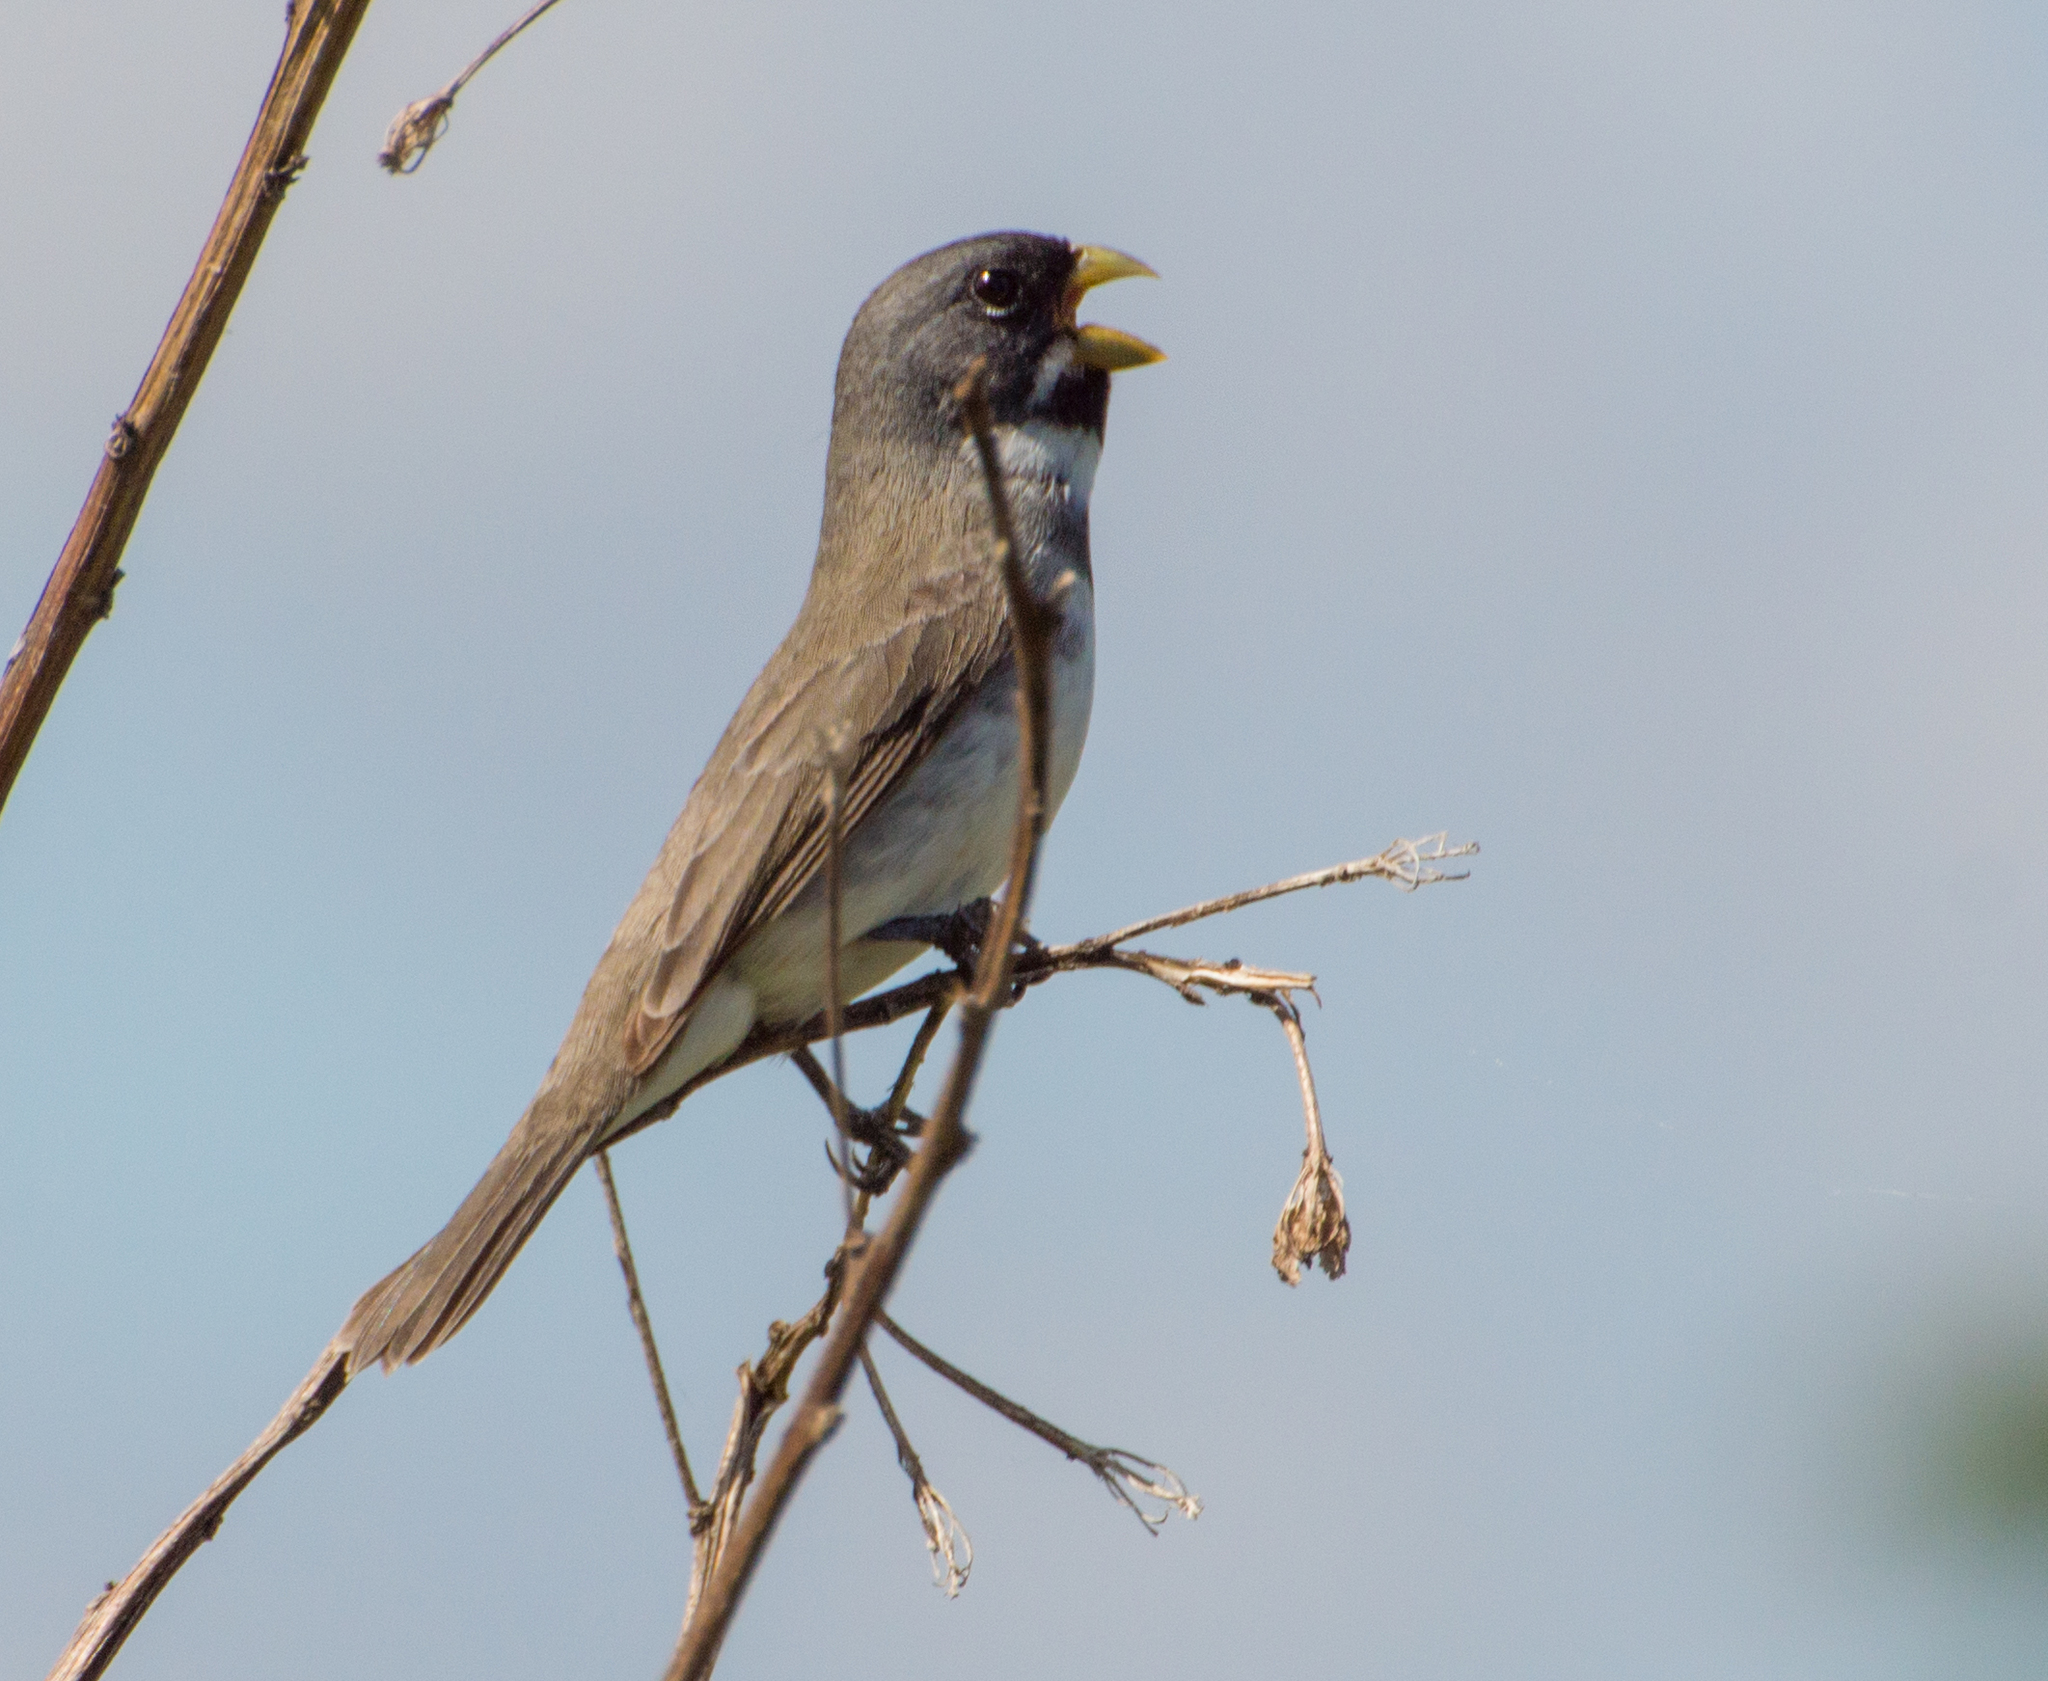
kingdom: Animalia
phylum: Chordata
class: Aves
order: Passeriformes
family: Thraupidae
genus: Sporophila
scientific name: Sporophila caerulescens
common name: Double-collared seedeater
